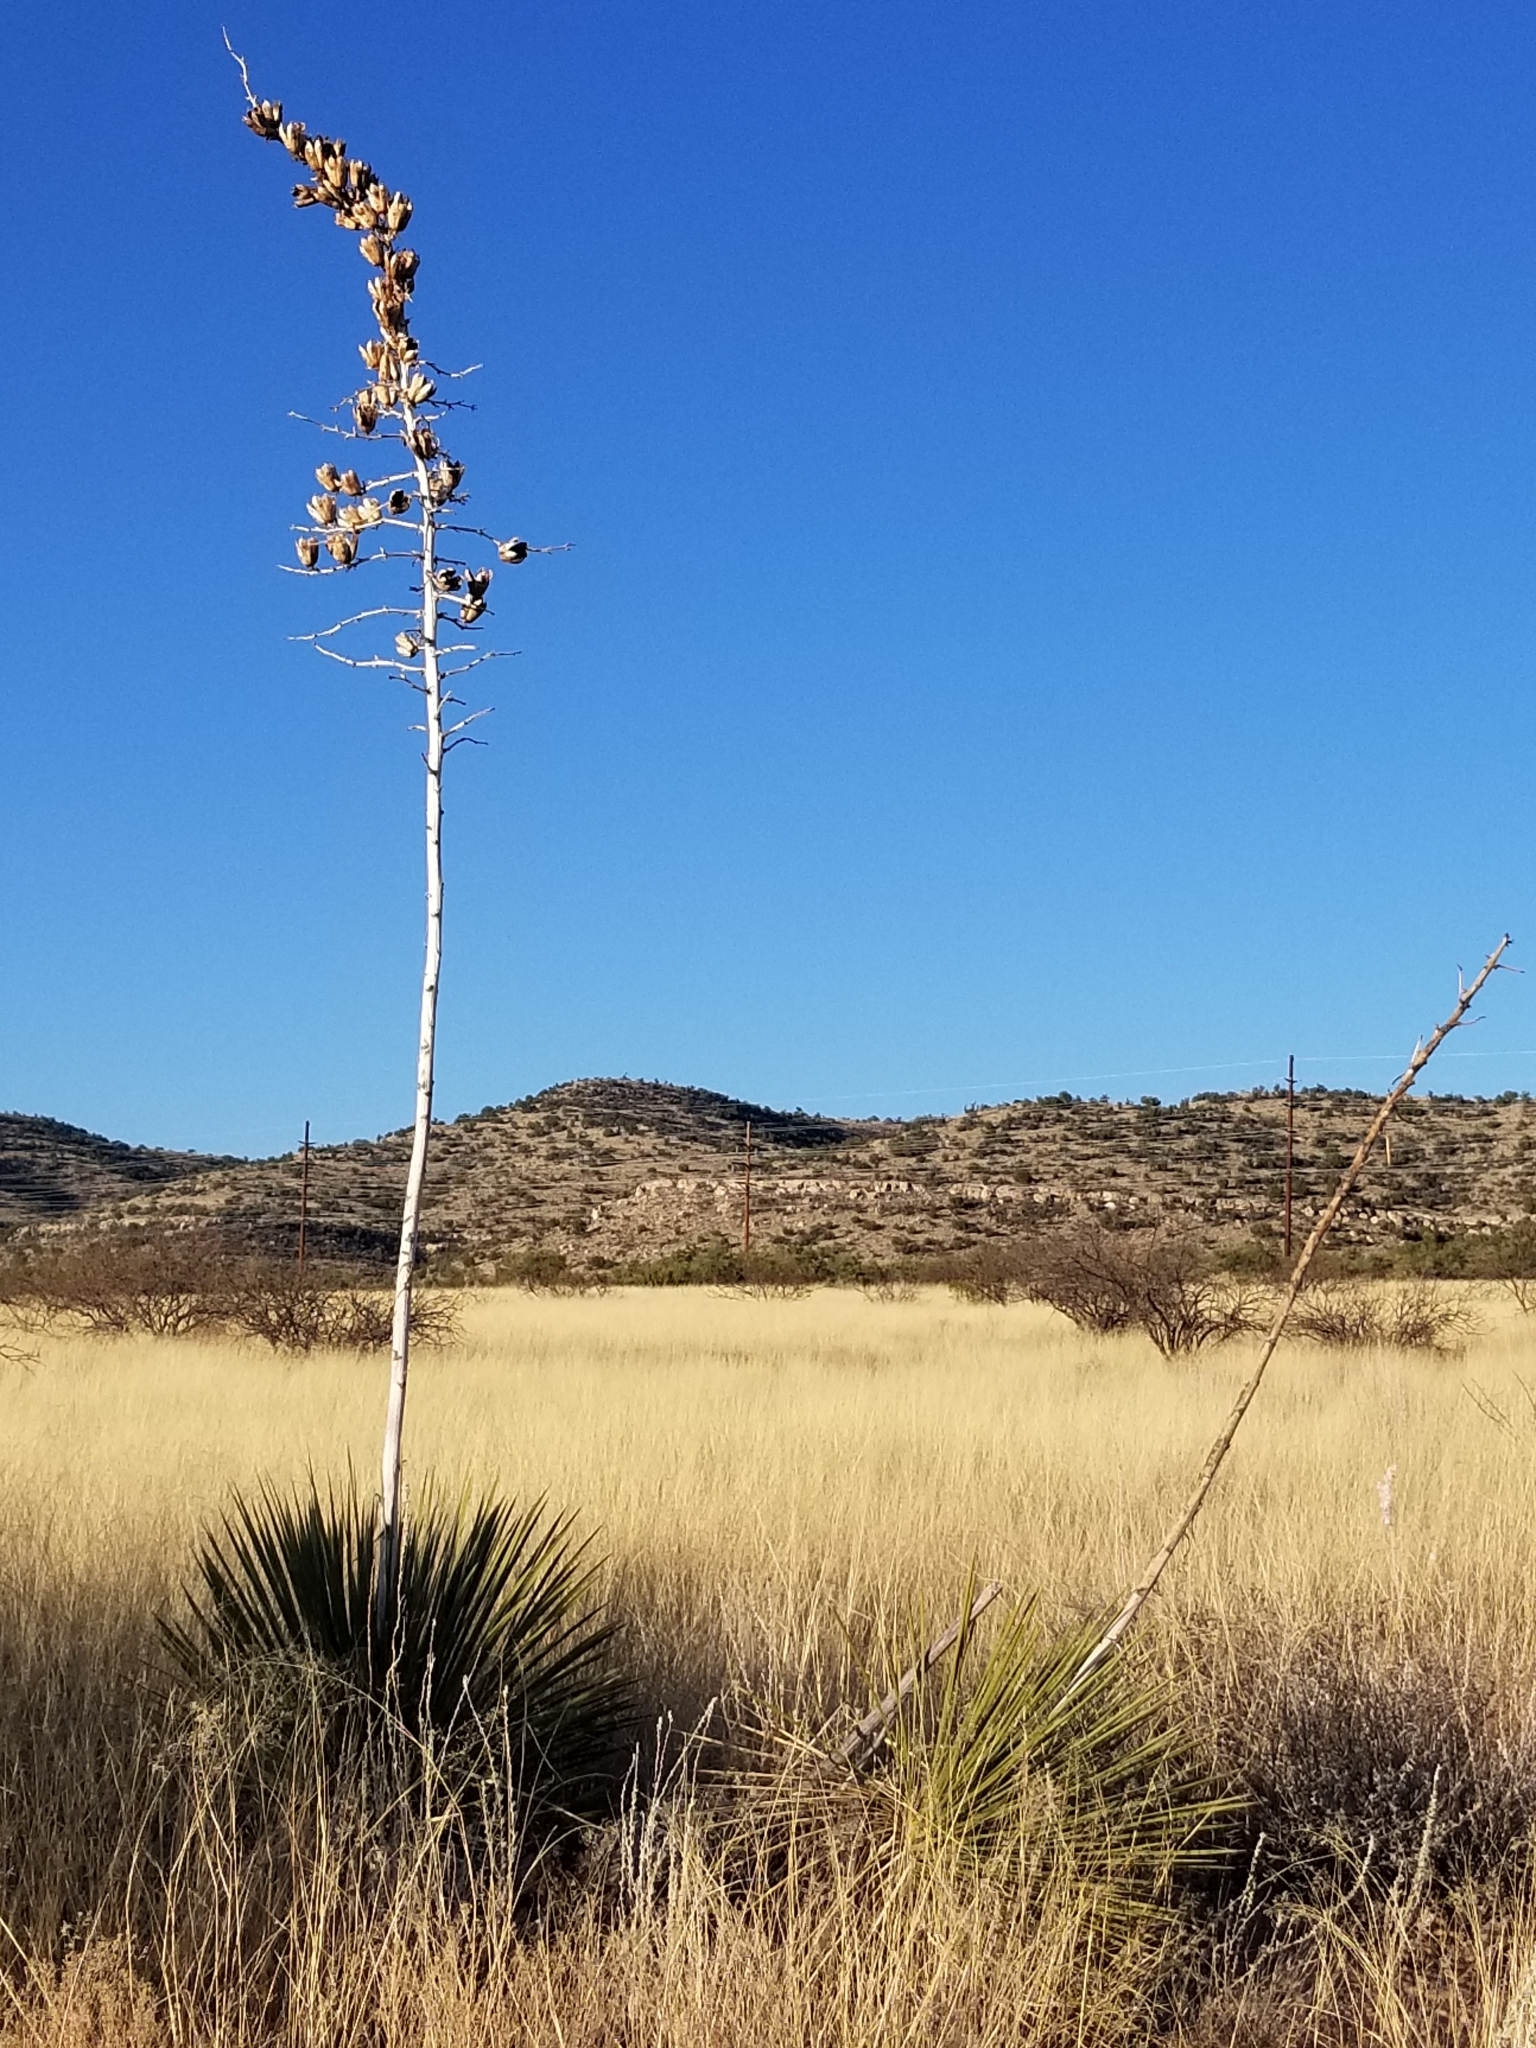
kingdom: Plantae
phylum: Tracheophyta
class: Liliopsida
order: Asparagales
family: Asparagaceae
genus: Yucca
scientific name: Yucca elata
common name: Palmella
